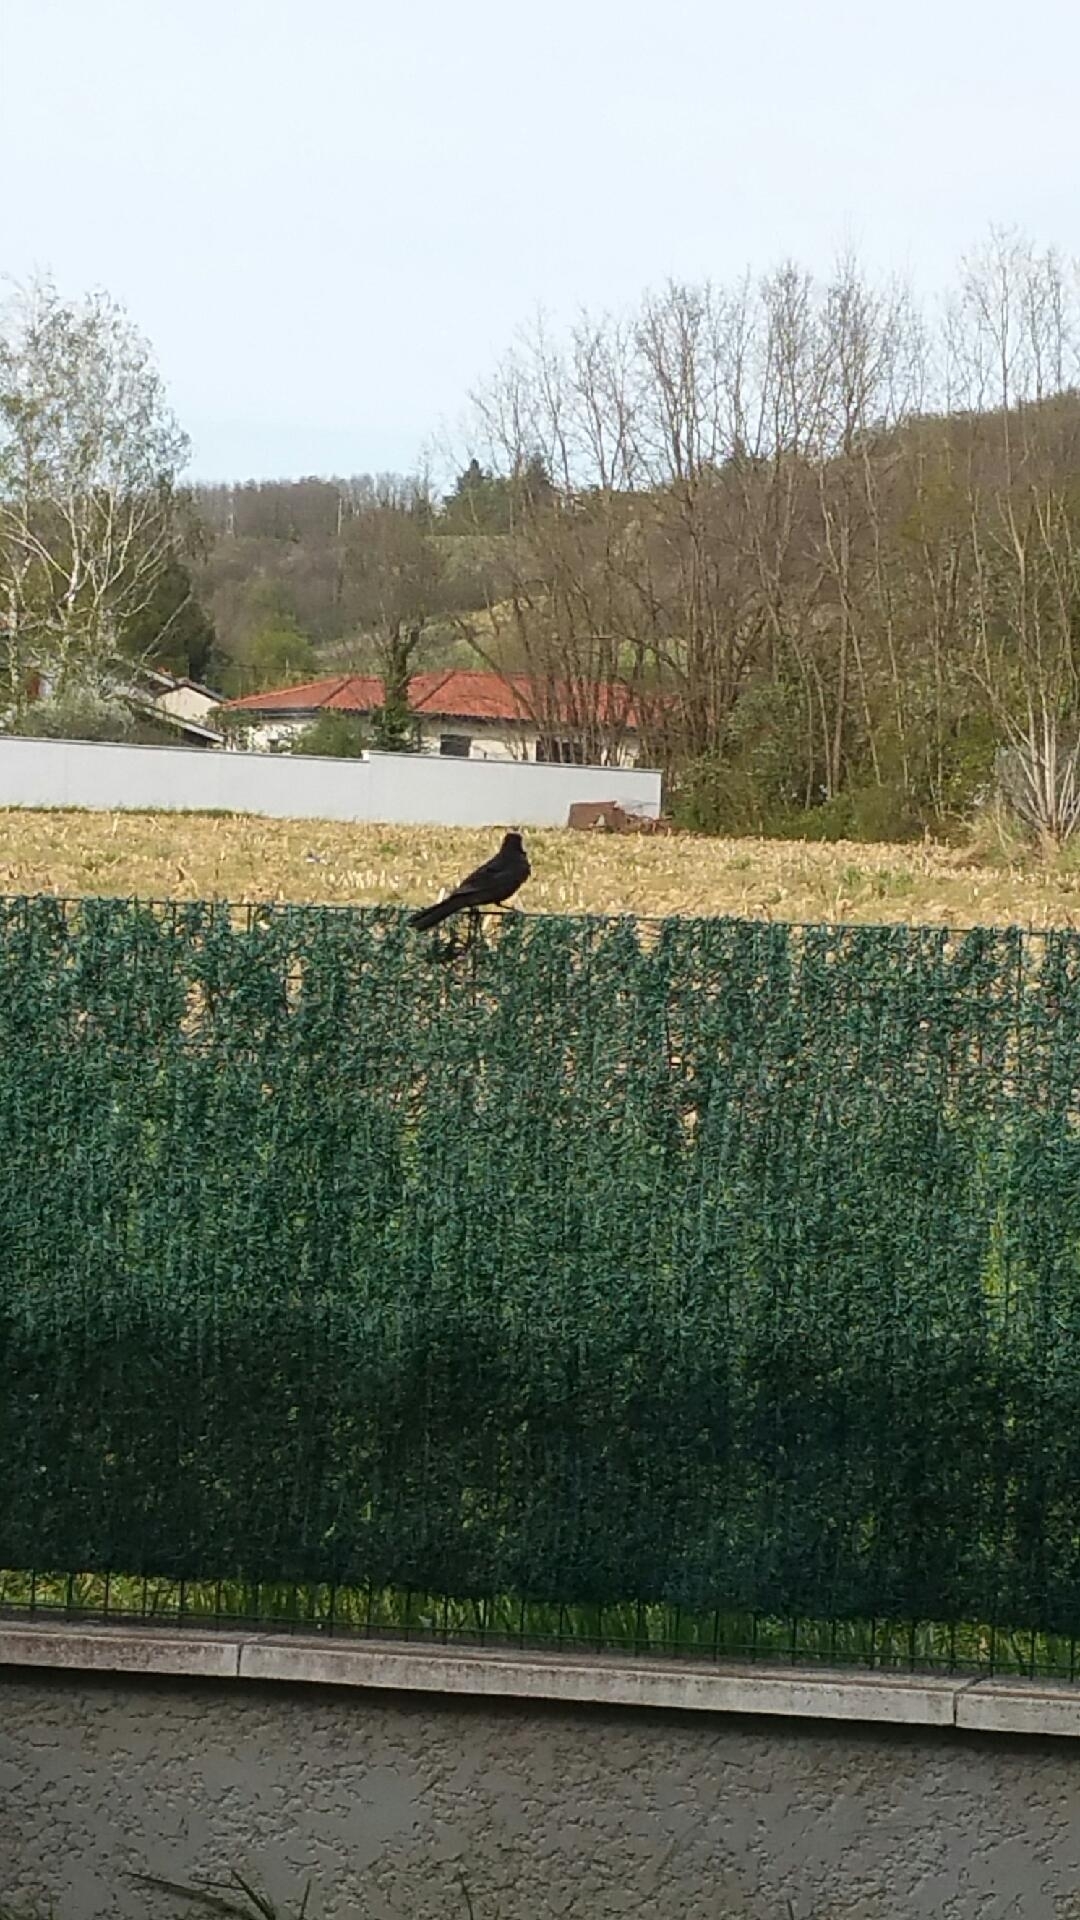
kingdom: Animalia
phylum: Chordata
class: Aves
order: Passeriformes
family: Corvidae
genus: Corvus
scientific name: Corvus corone
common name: Carrion crow
